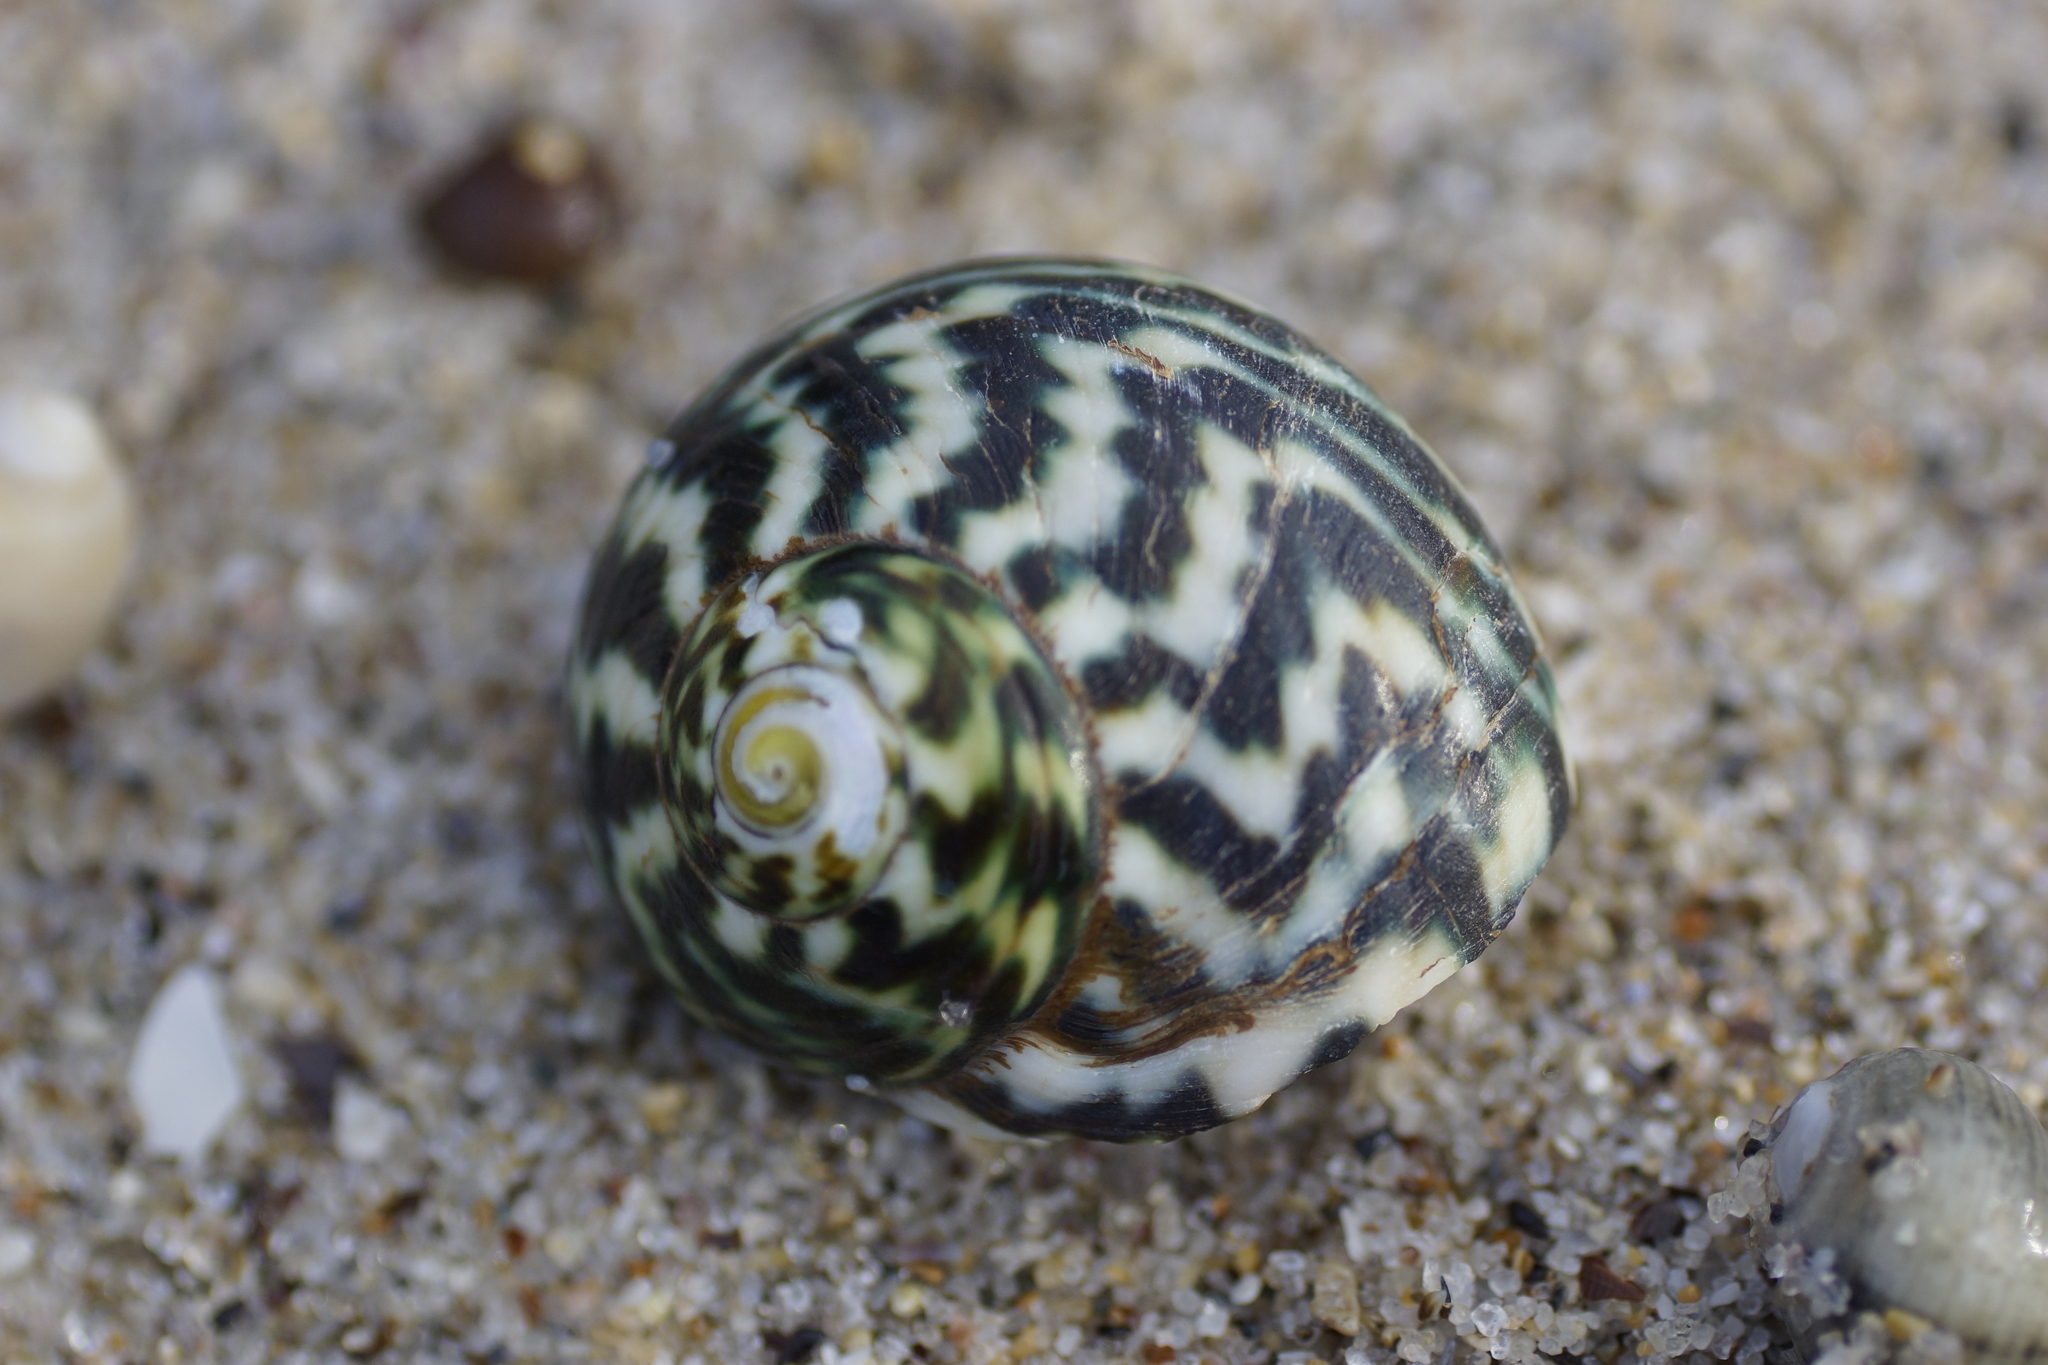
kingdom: Animalia
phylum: Mollusca
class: Gastropoda
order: Trochida
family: Turbinidae
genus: Lunella
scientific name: Lunella undulata
